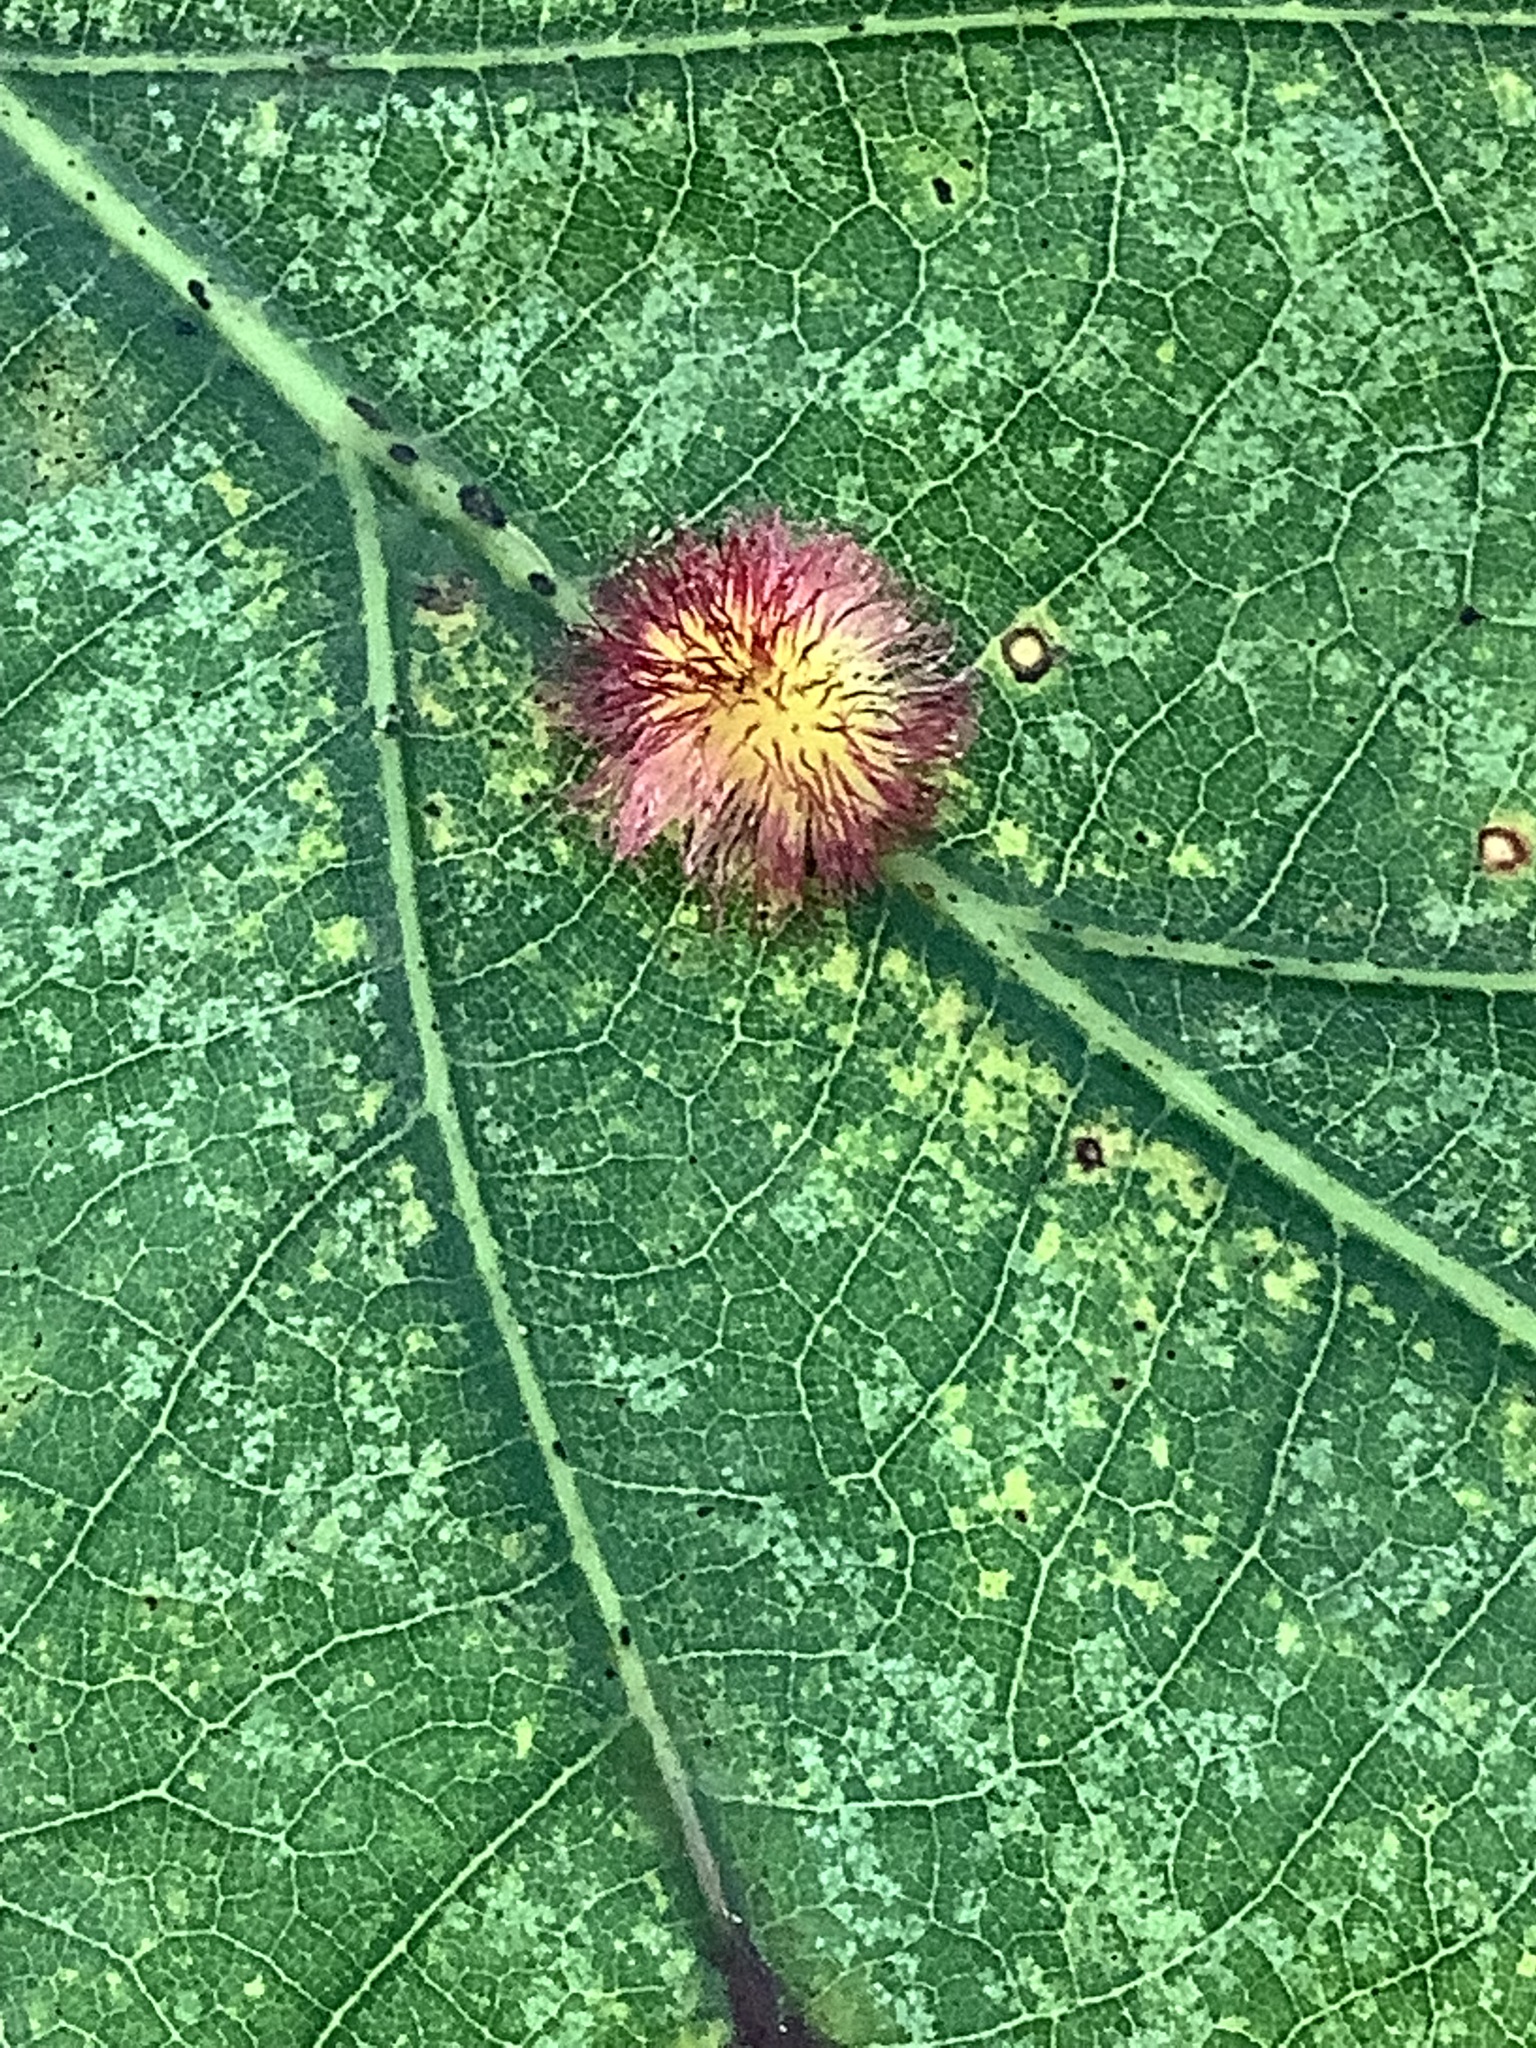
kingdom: Animalia
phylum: Arthropoda
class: Insecta
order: Hymenoptera
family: Cynipidae
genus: Acraspis
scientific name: Acraspis erinacei
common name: Hedgehog gall wasp
